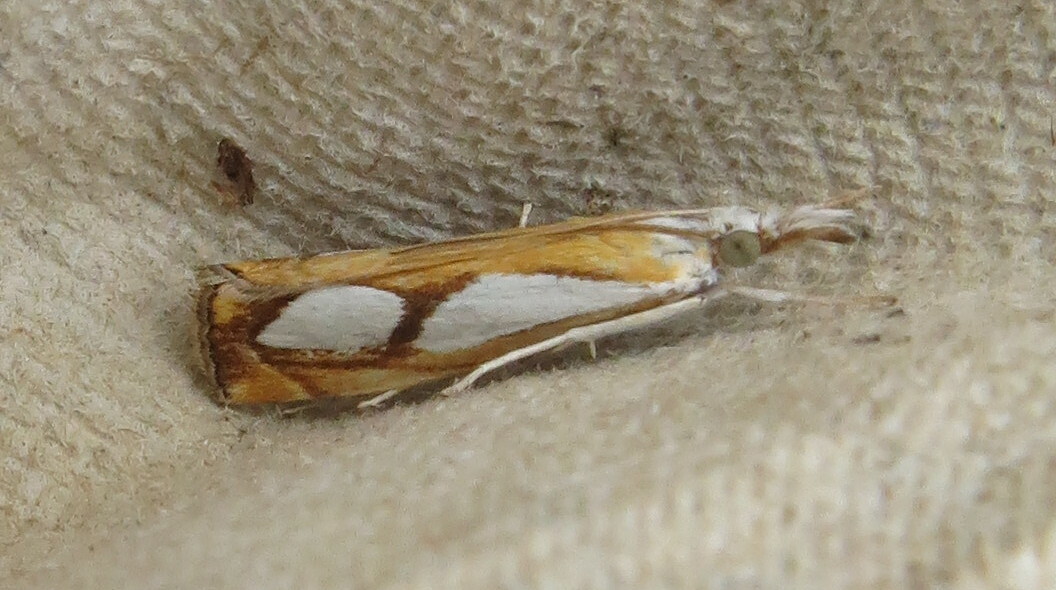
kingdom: Animalia
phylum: Arthropoda
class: Insecta
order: Lepidoptera
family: Crambidae
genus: Catoptria
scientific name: Catoptria pinella
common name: Pearl grass-veneer
